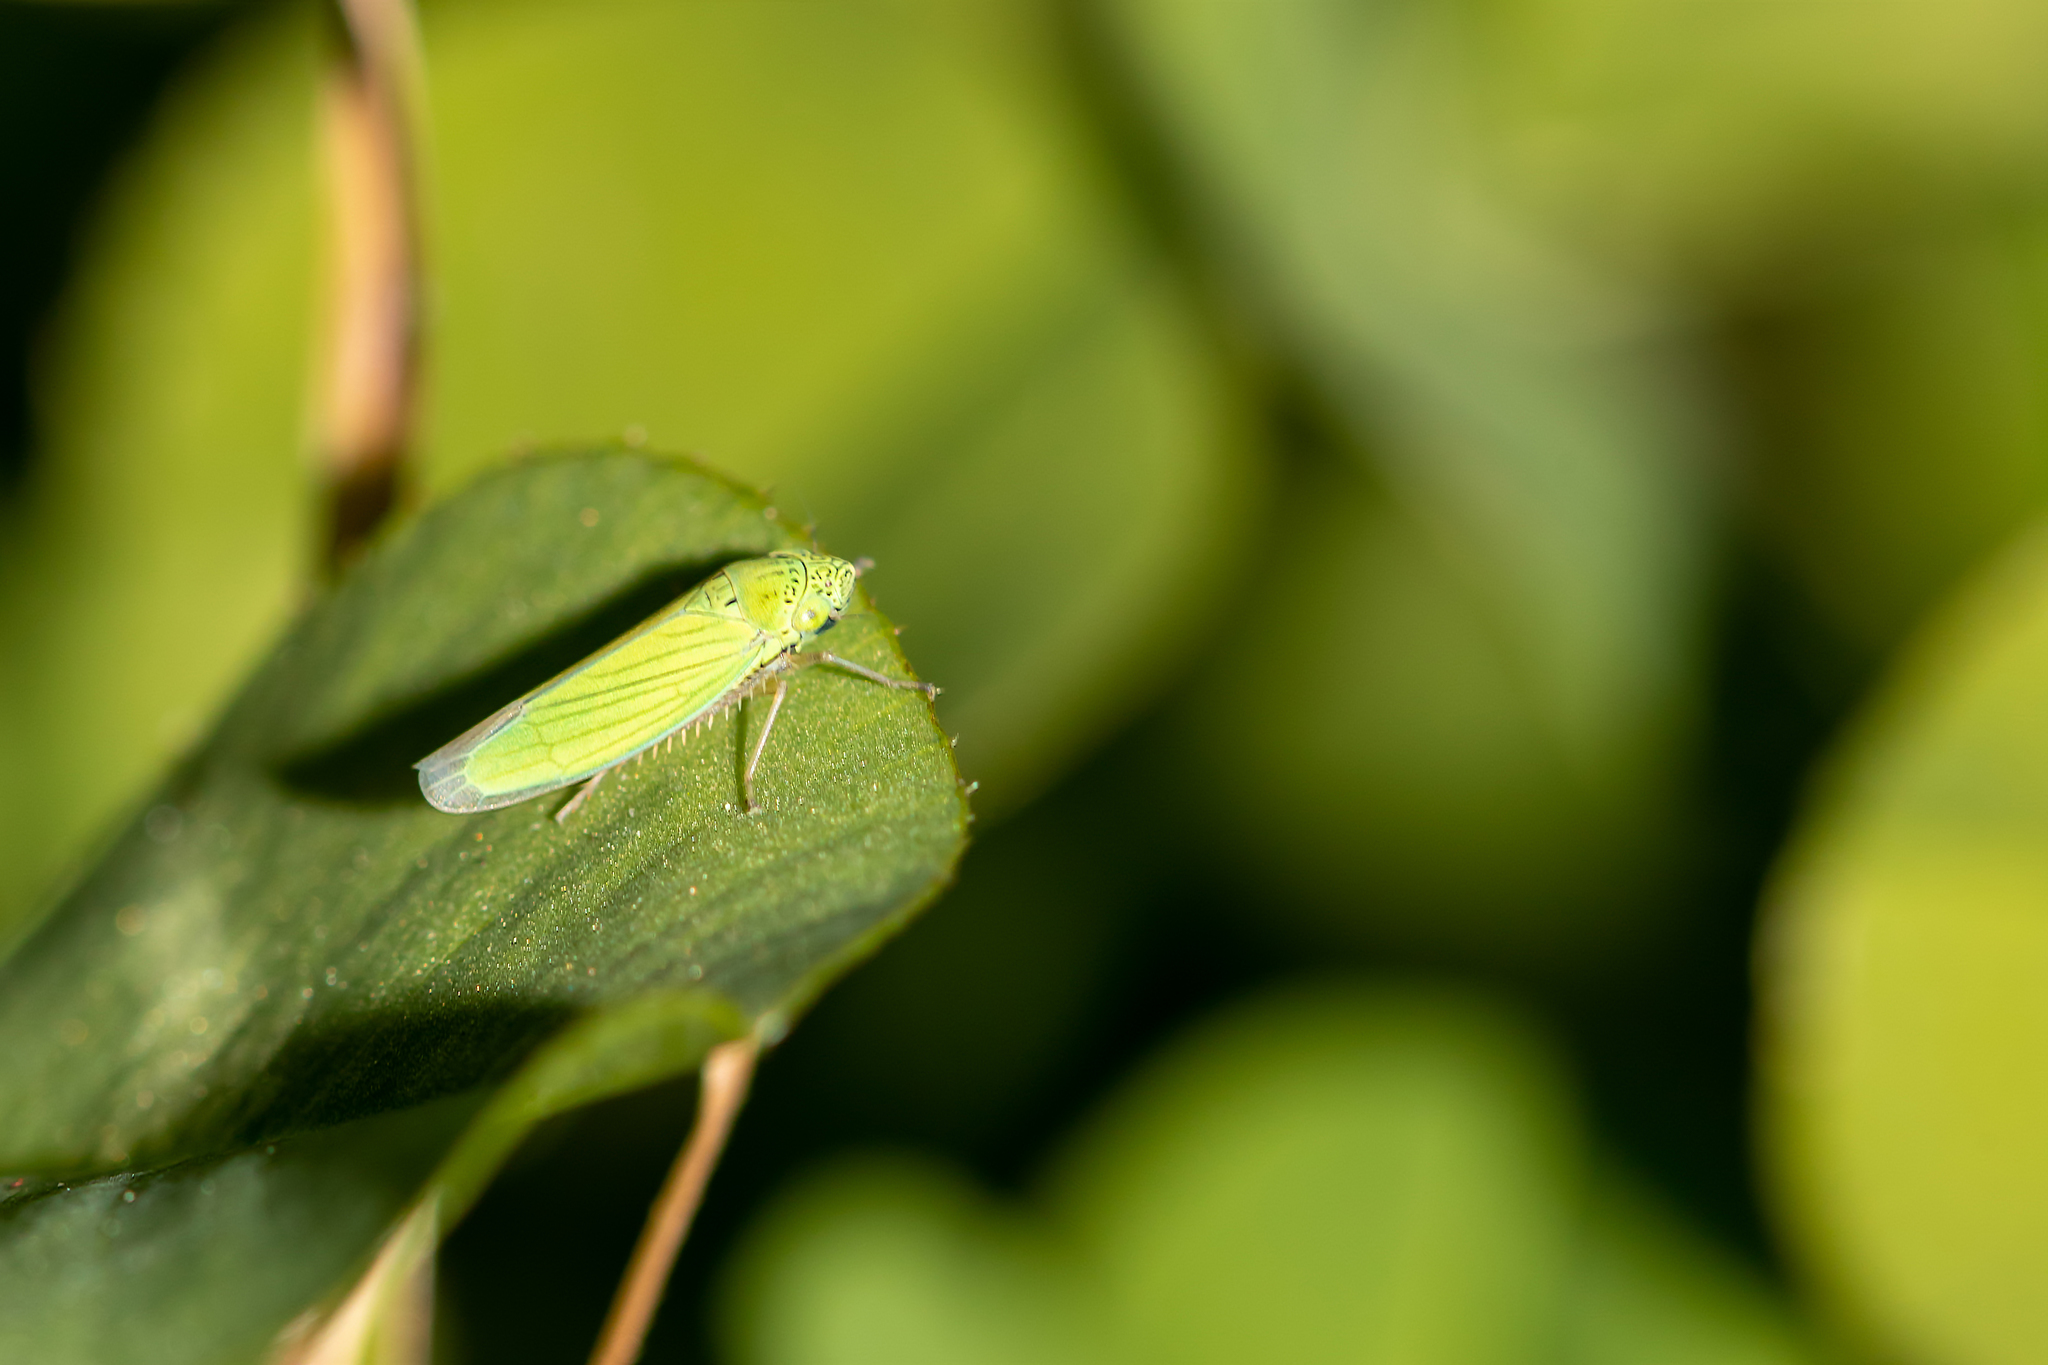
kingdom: Animalia
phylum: Arthropoda
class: Insecta
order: Hemiptera
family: Cicadellidae
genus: Hortensia
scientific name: Hortensia similis
